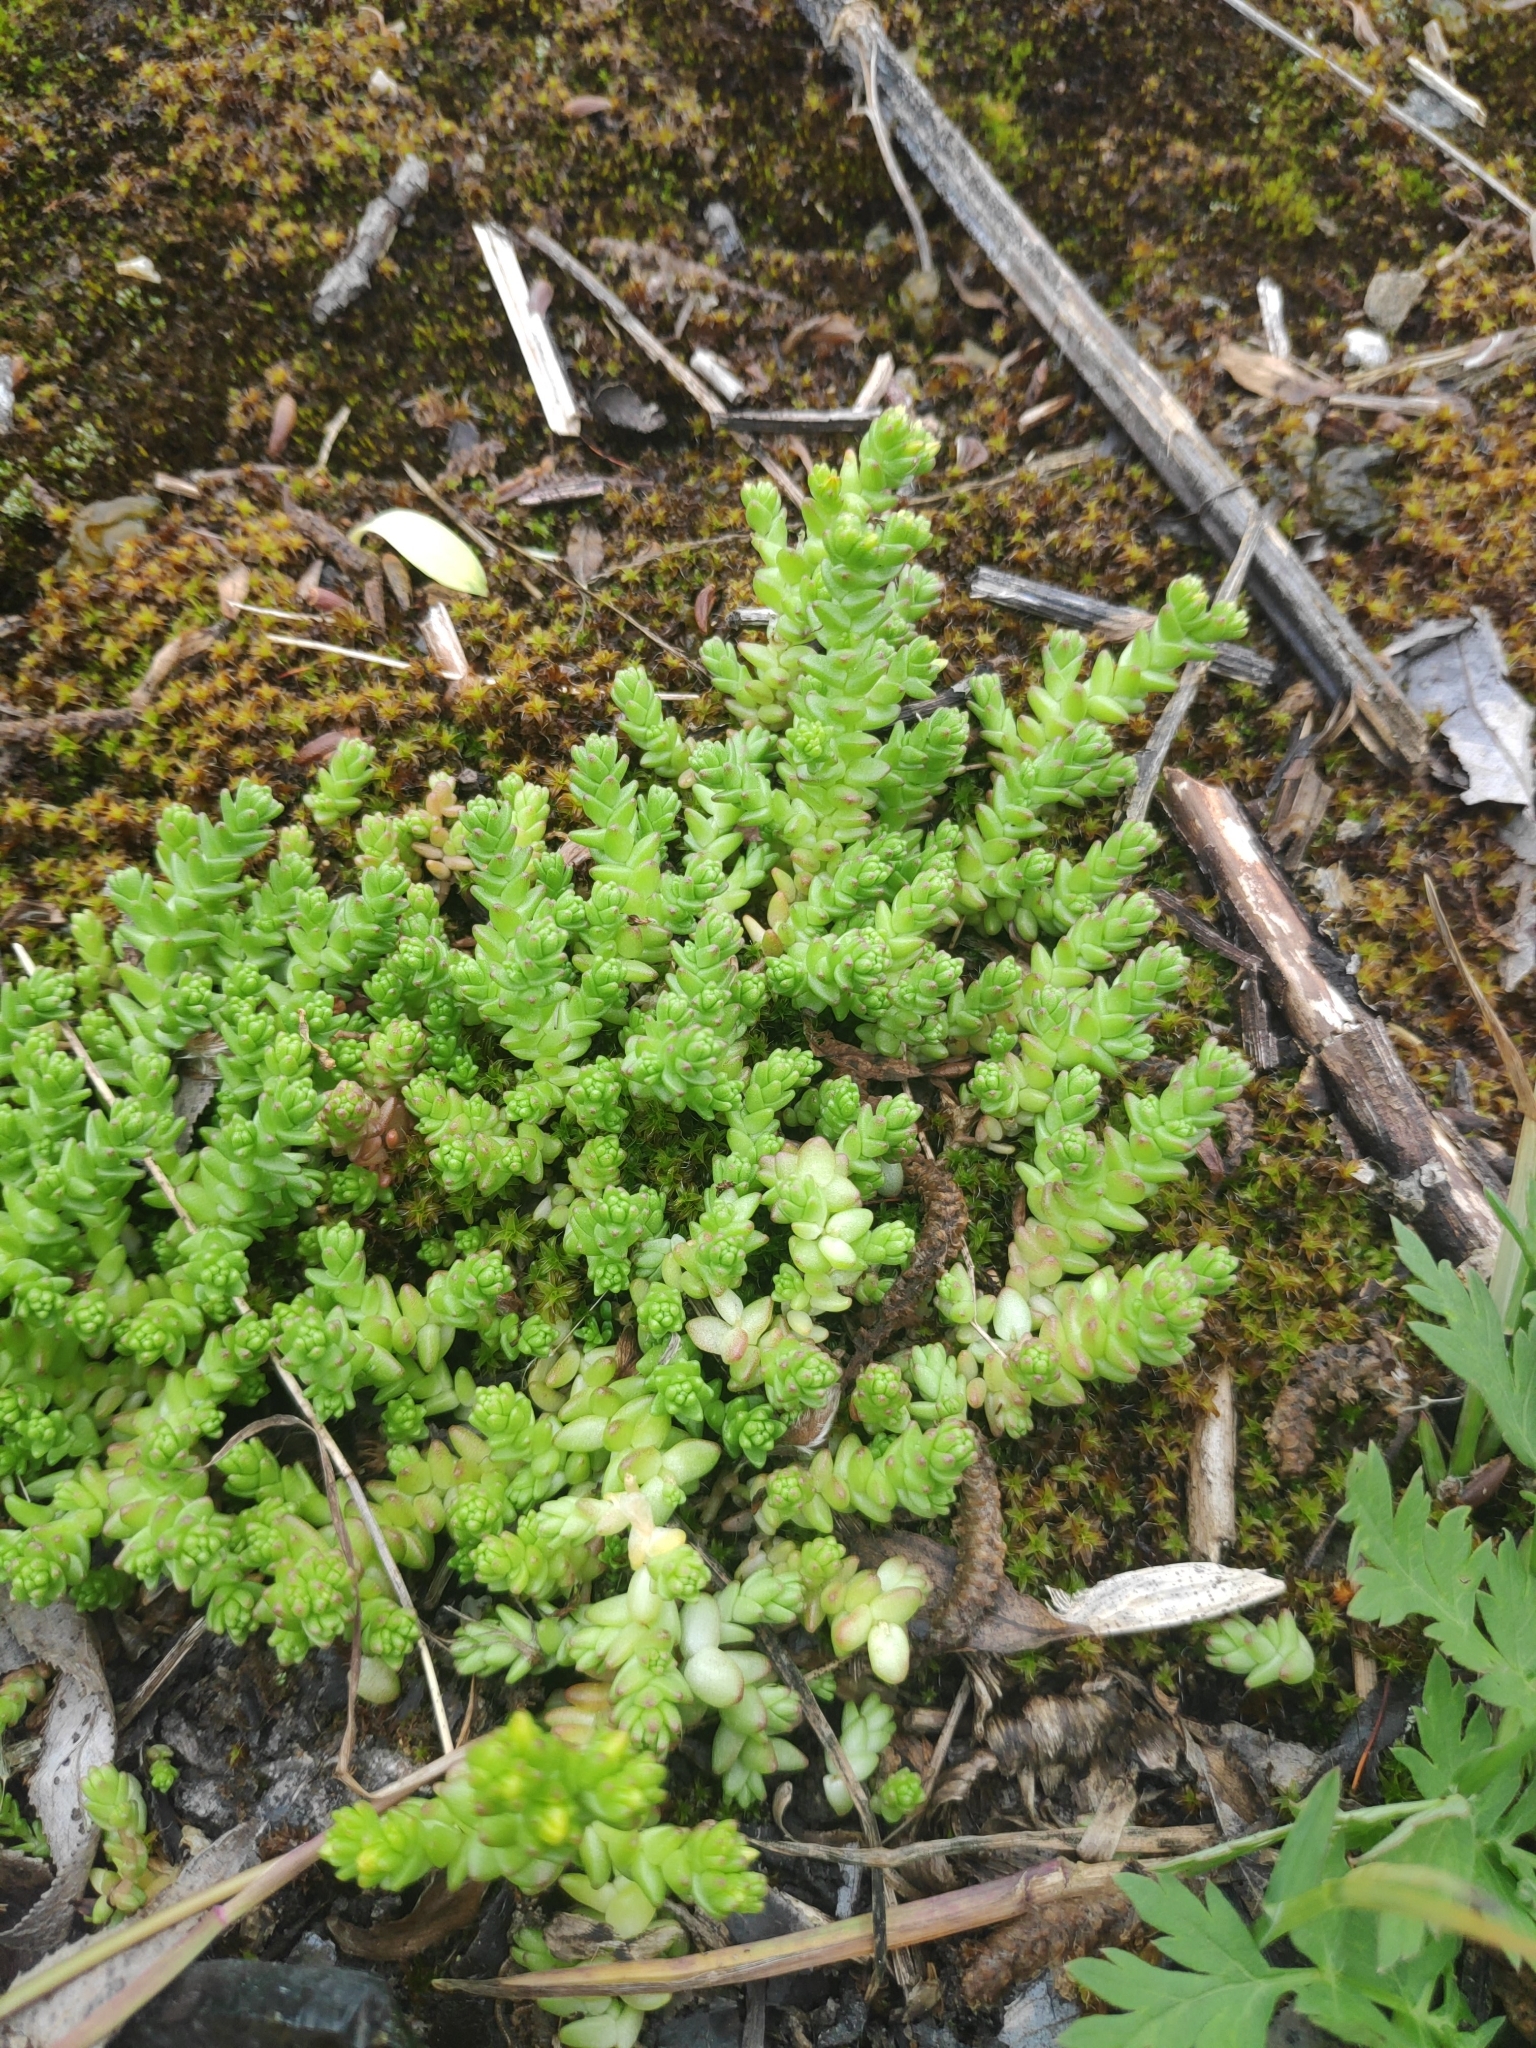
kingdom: Plantae
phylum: Tracheophyta
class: Magnoliopsida
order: Saxifragales
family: Crassulaceae
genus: Sedum
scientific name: Sedum acre
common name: Biting stonecrop
